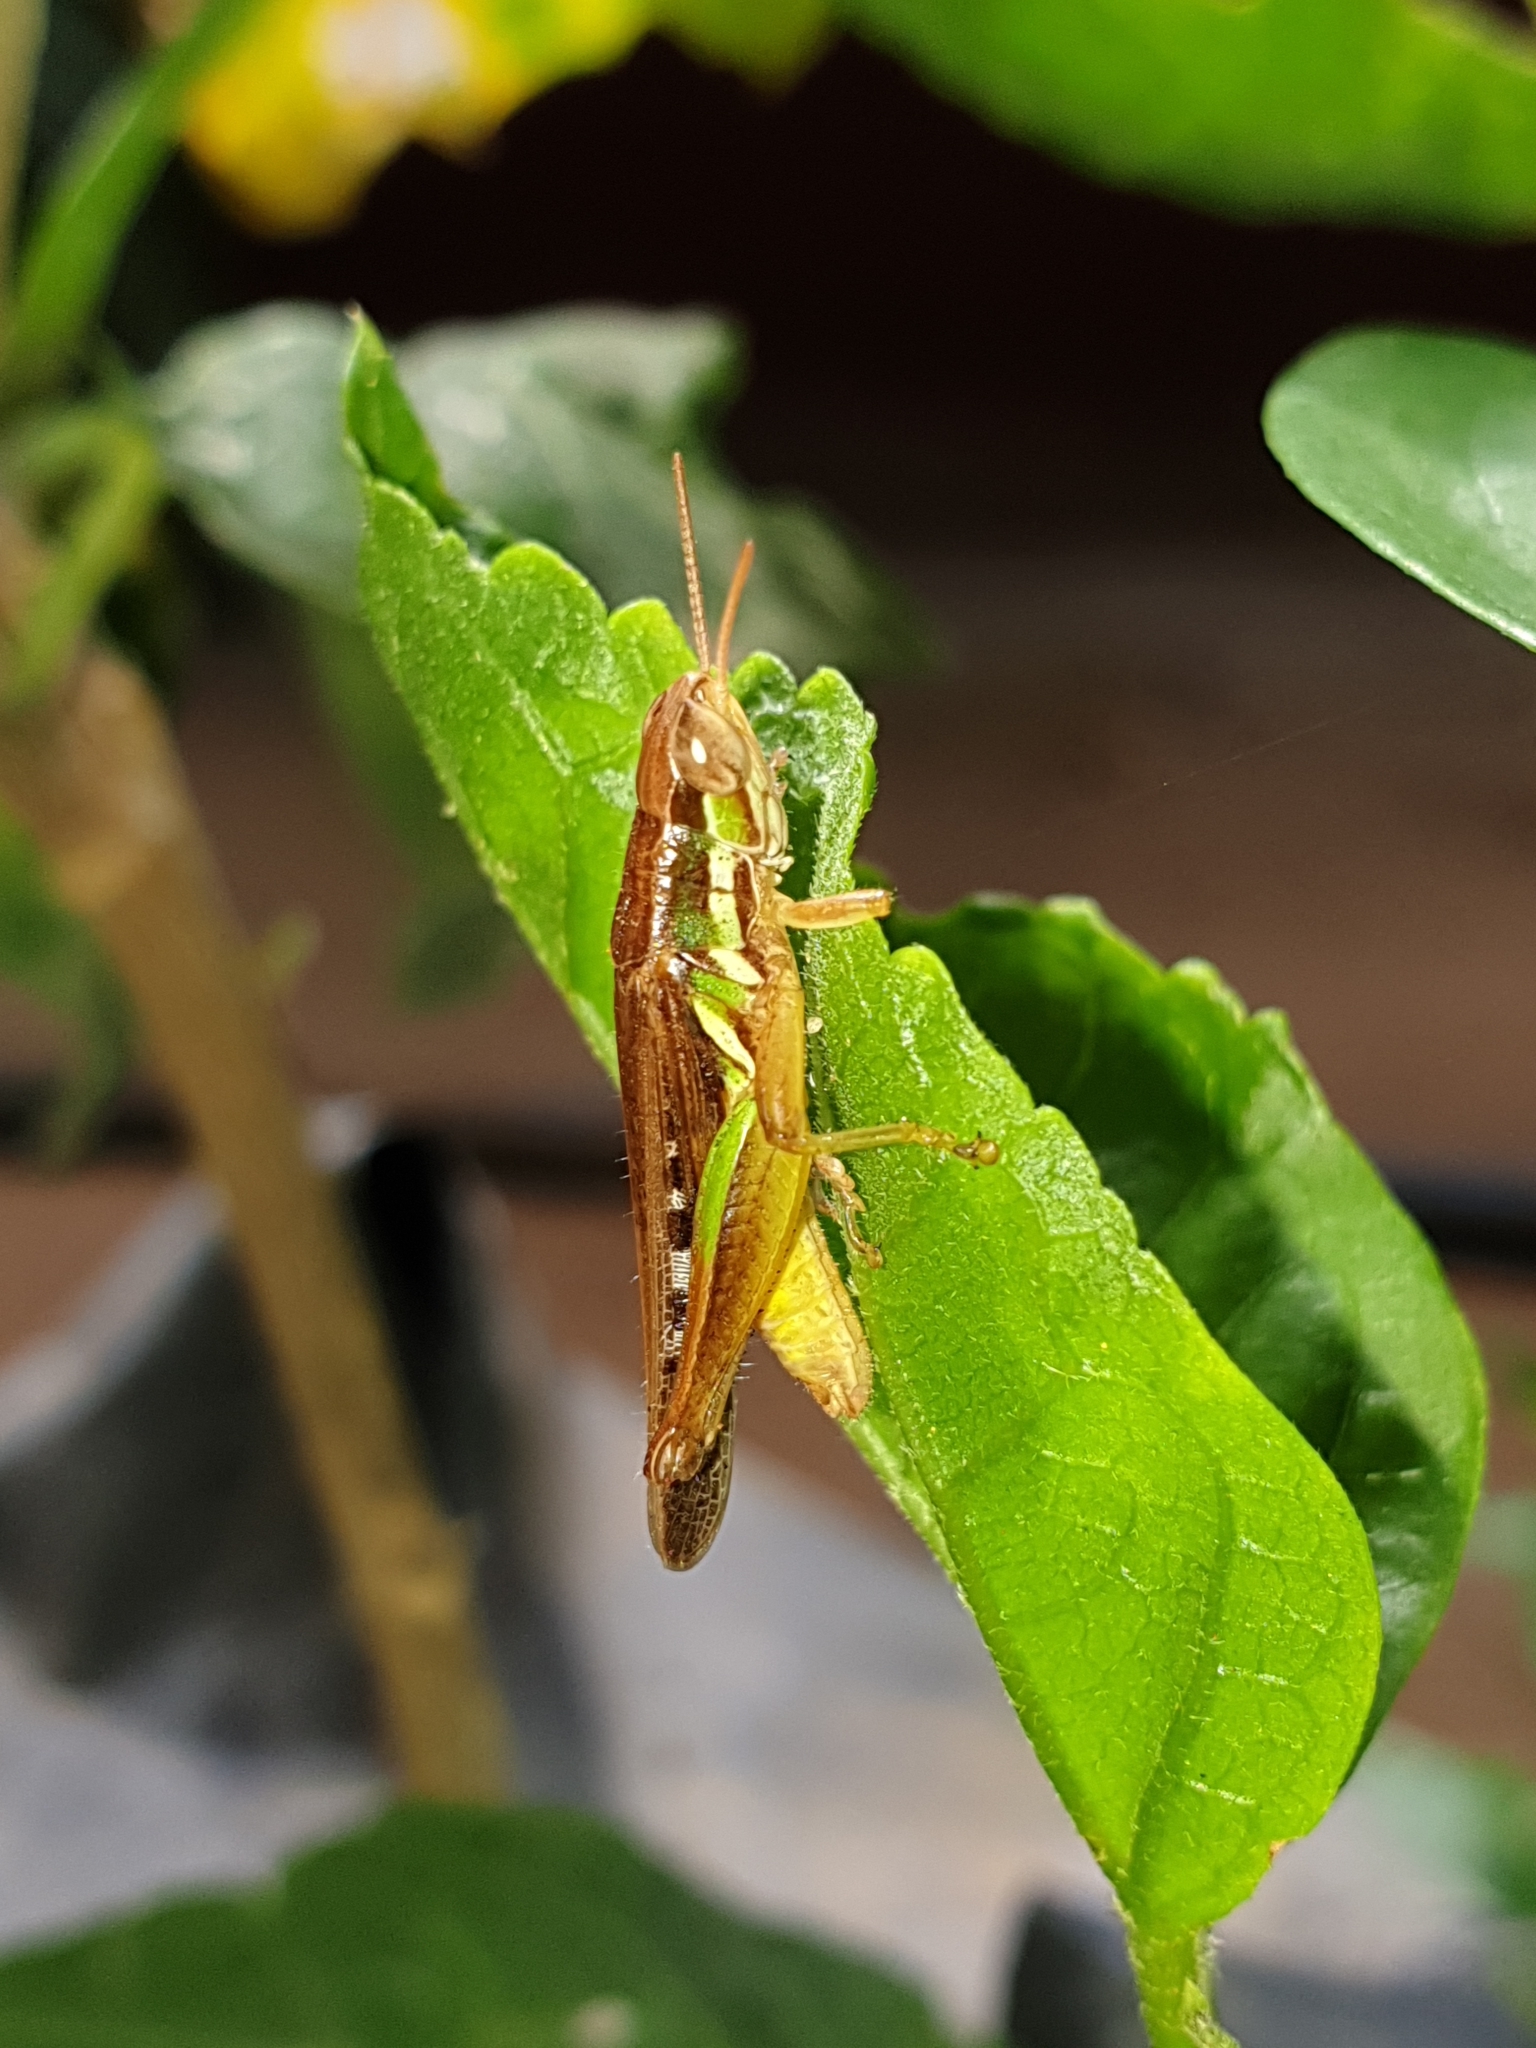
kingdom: Animalia
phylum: Arthropoda
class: Insecta
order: Orthoptera
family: Acrididae
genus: Spathosternum
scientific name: Spathosternum prasiniferum
